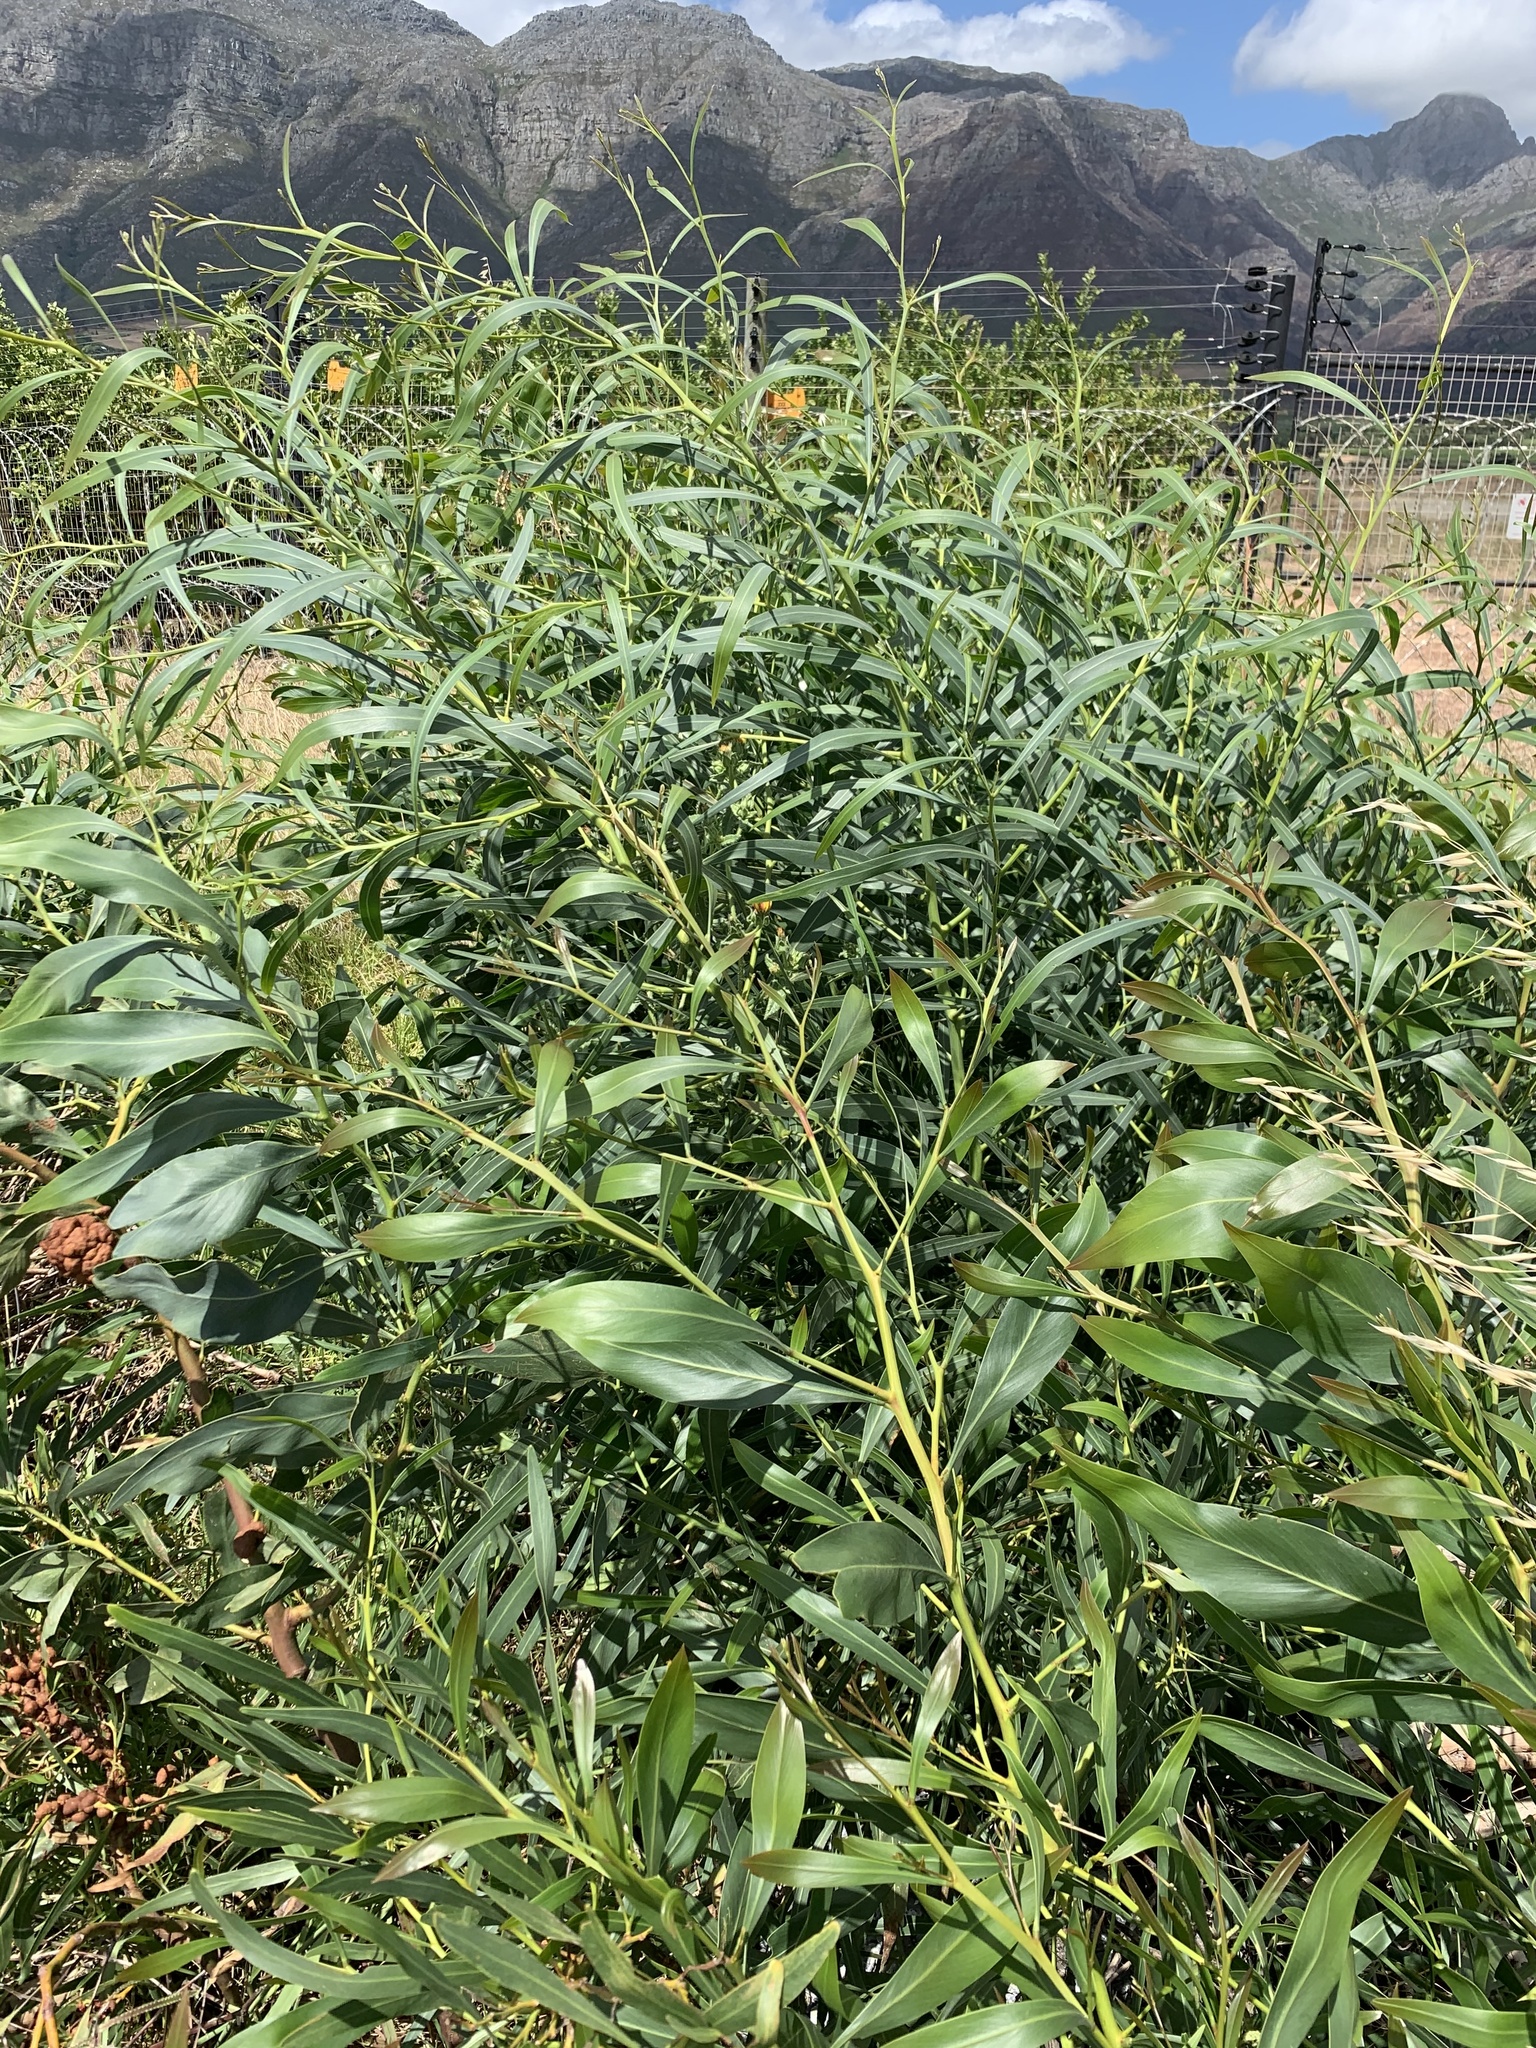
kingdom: Plantae
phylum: Tracheophyta
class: Magnoliopsida
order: Fabales
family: Fabaceae
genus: Acacia
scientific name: Acacia saligna
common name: Orange wattle
